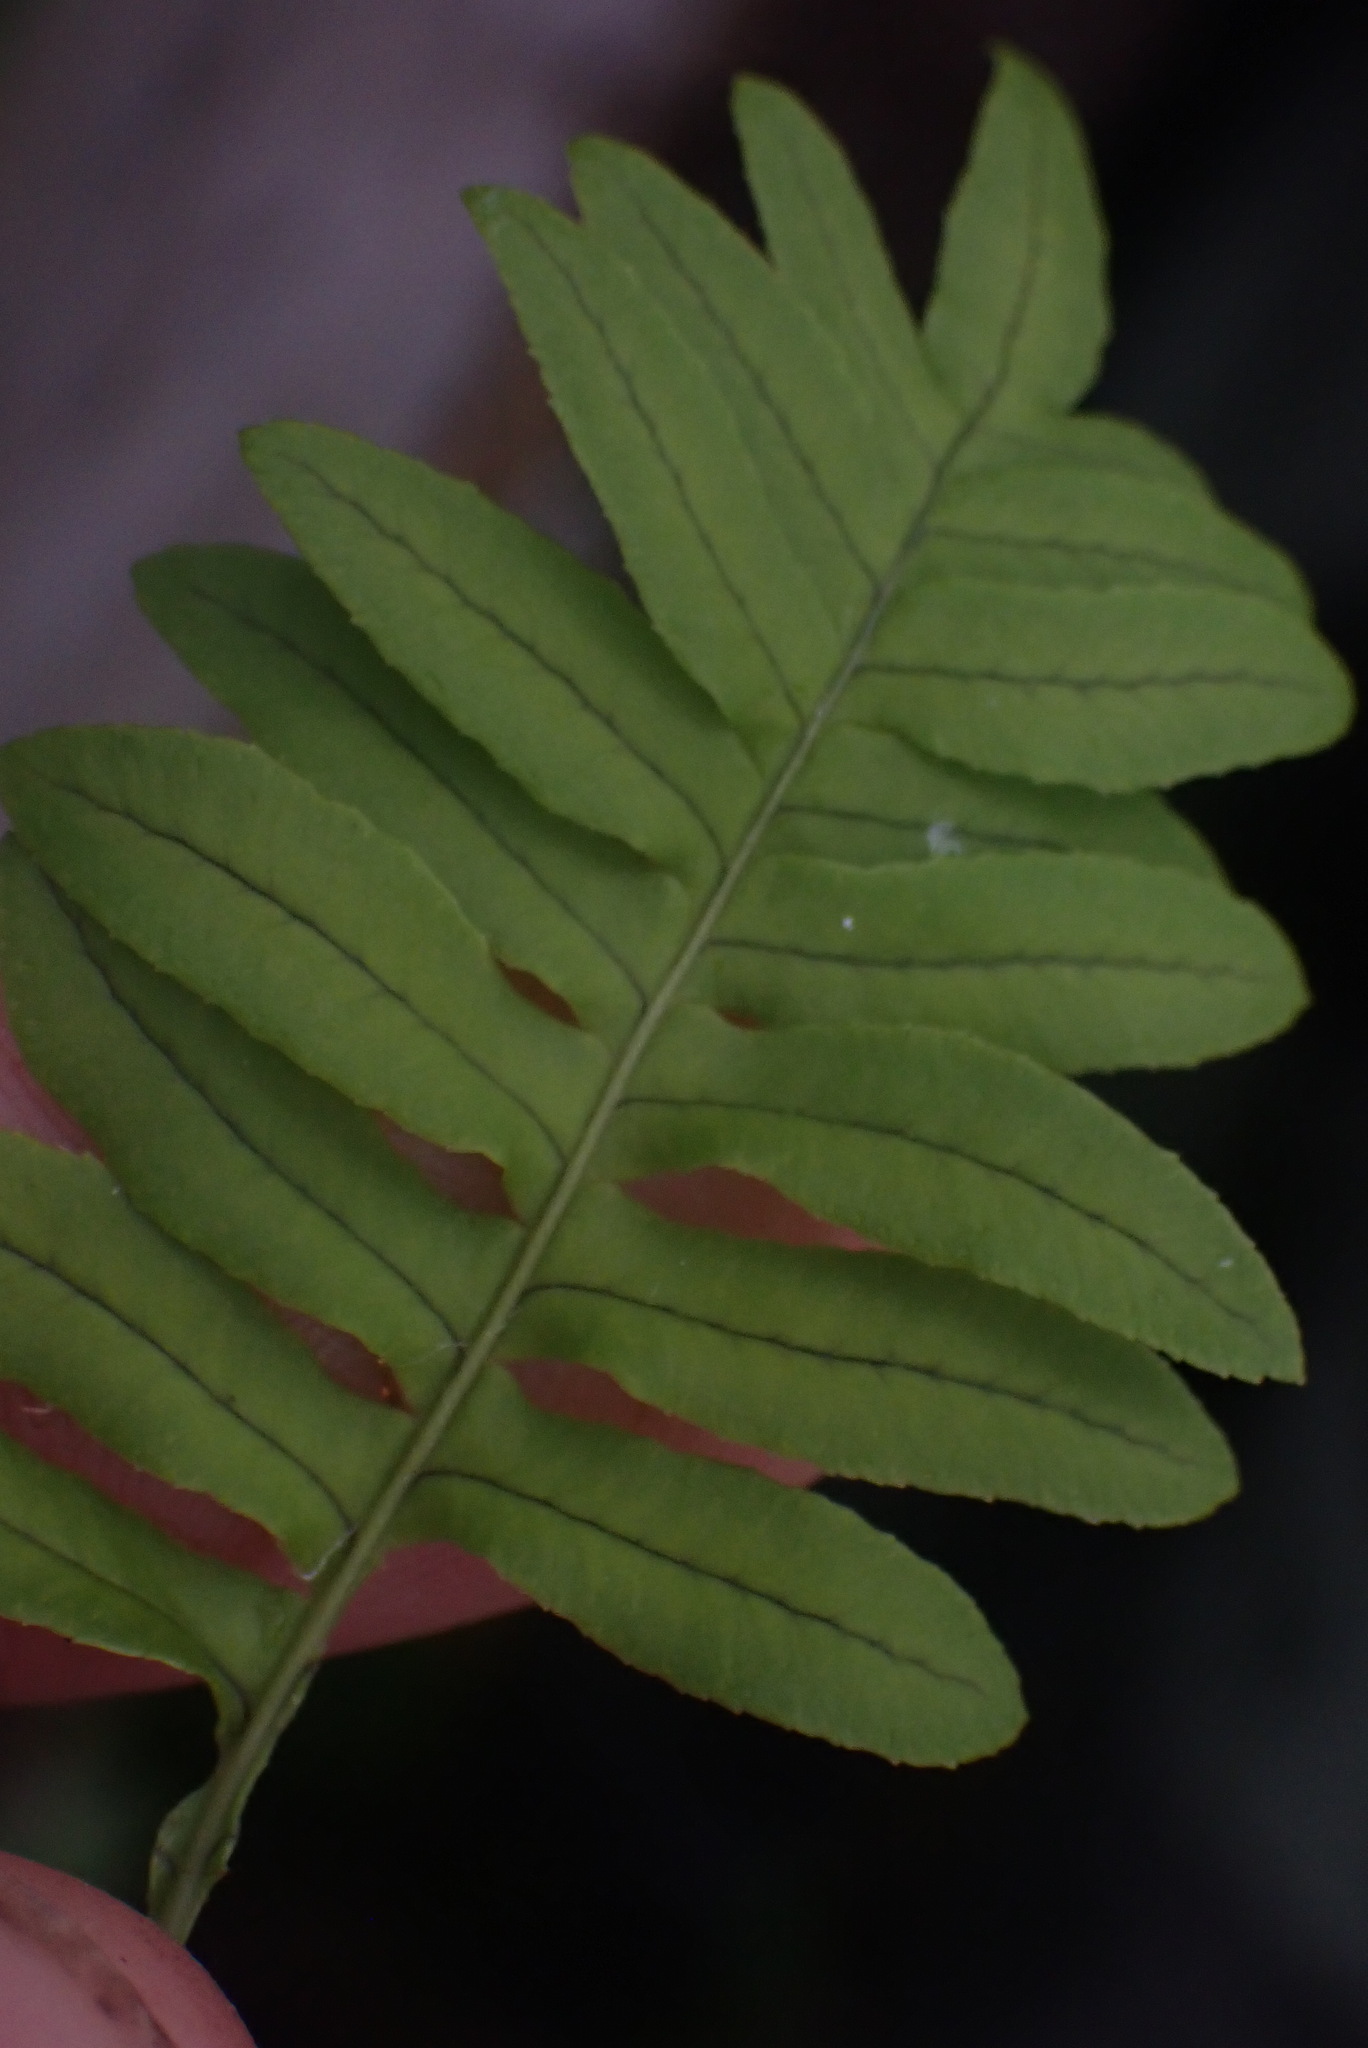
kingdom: Plantae
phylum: Tracheophyta
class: Polypodiopsida
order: Polypodiales
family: Polypodiaceae
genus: Polypodium
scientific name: Polypodium glycyrrhiza
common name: Licorice fern
